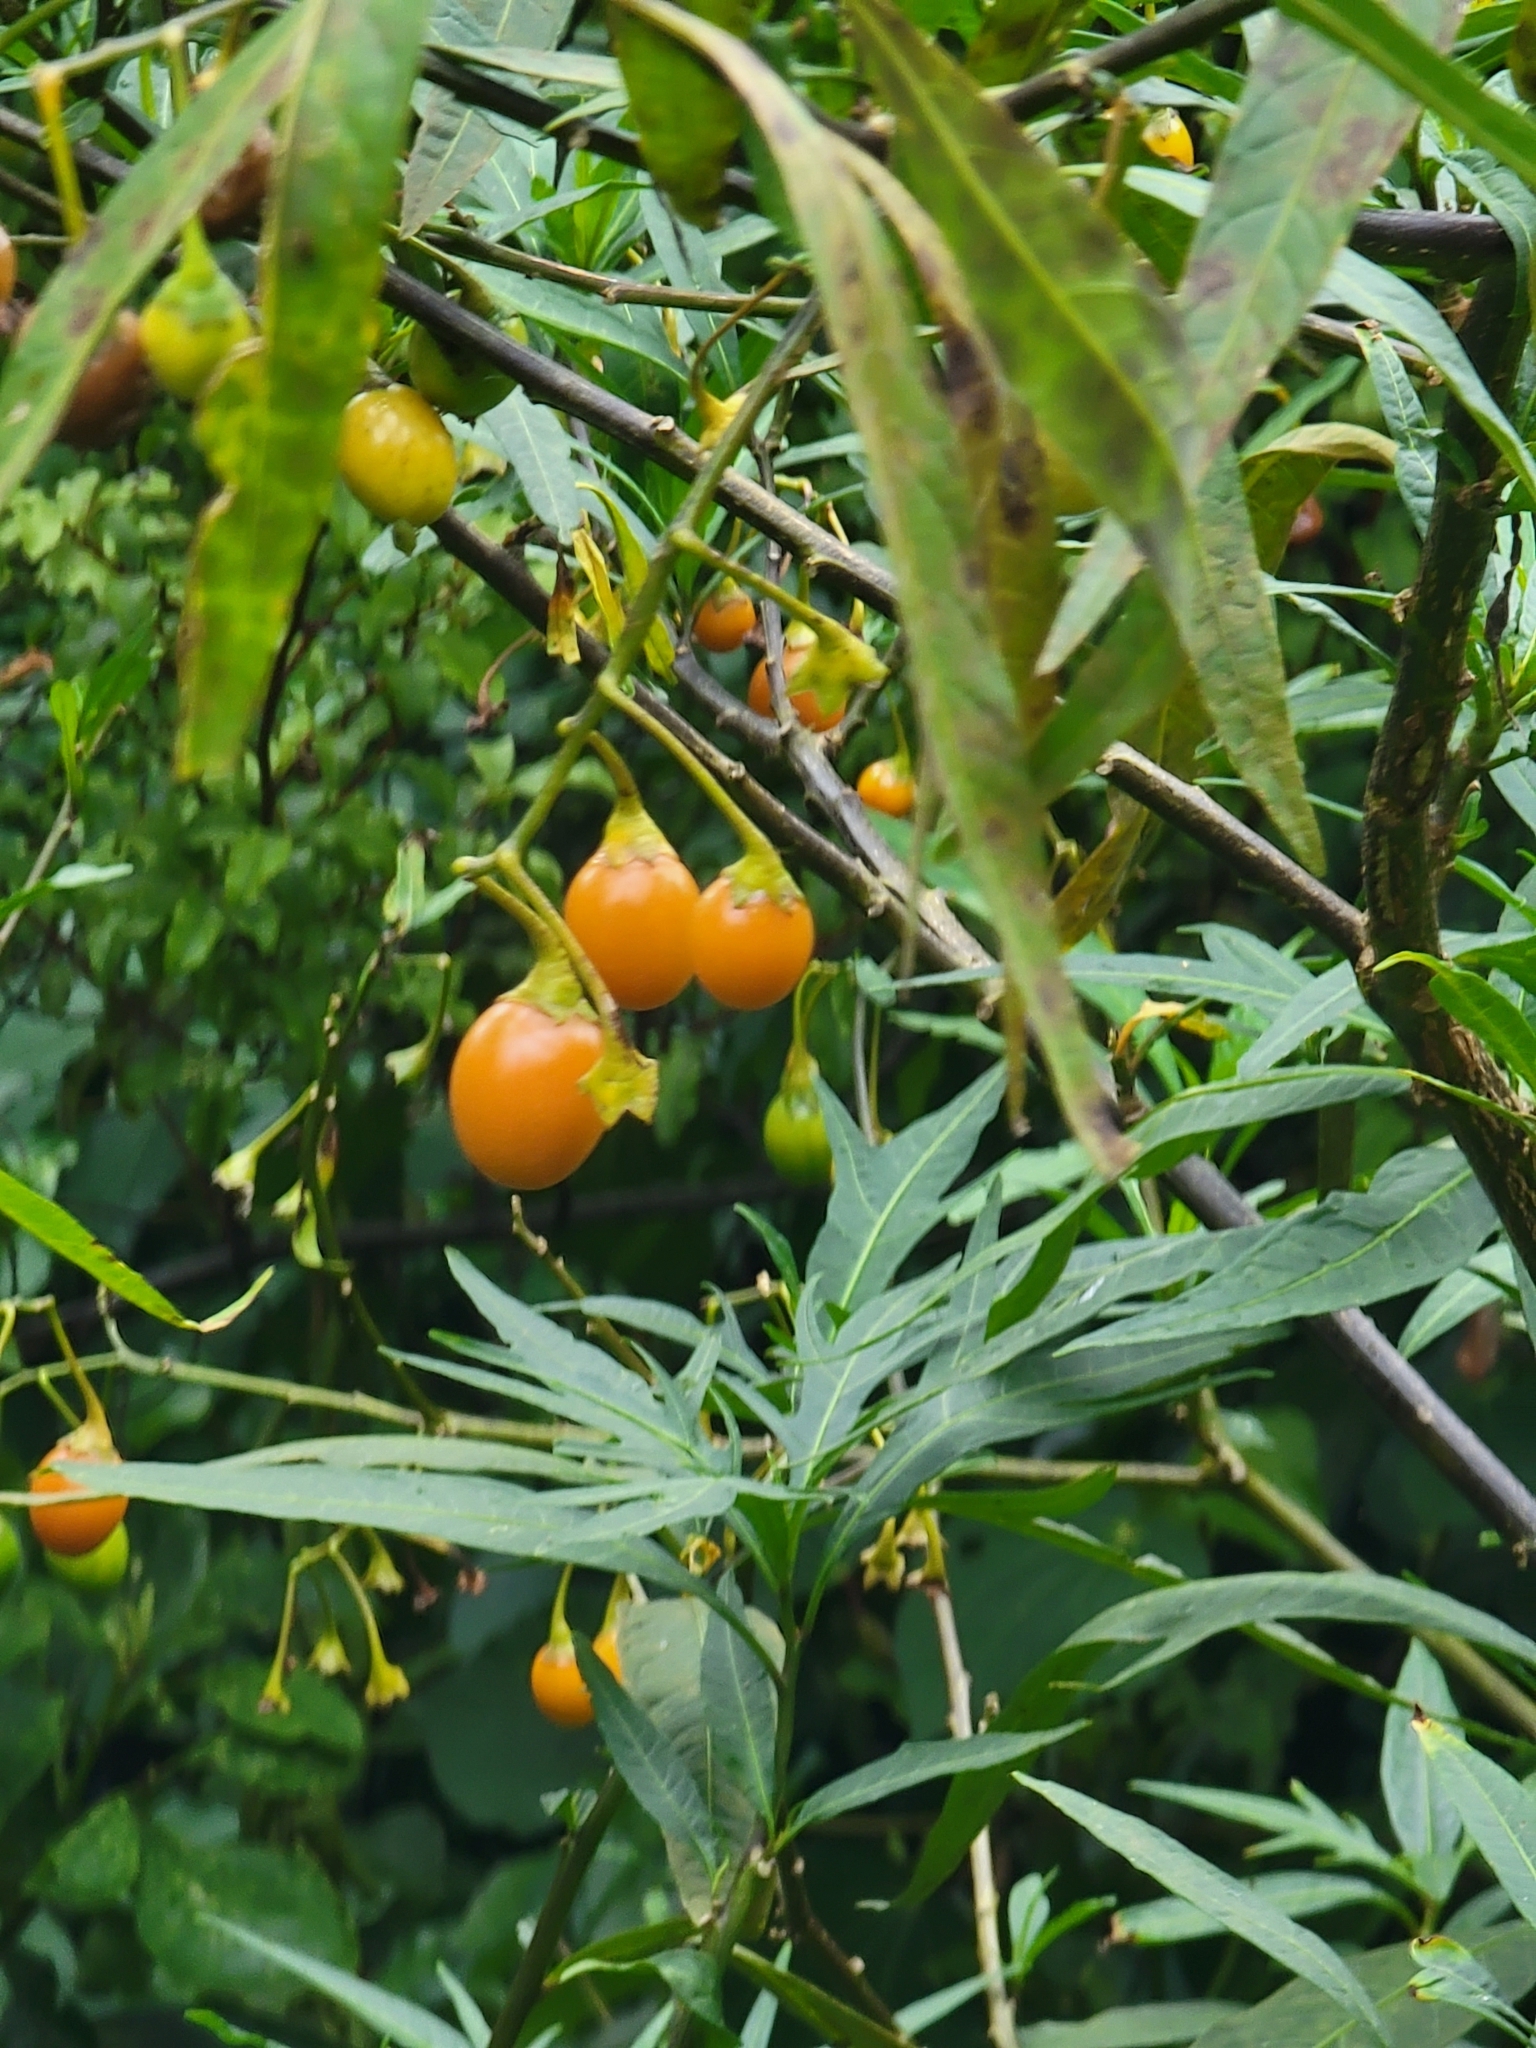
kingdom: Plantae
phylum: Tracheophyta
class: Magnoliopsida
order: Solanales
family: Solanaceae
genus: Solanum
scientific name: Solanum
